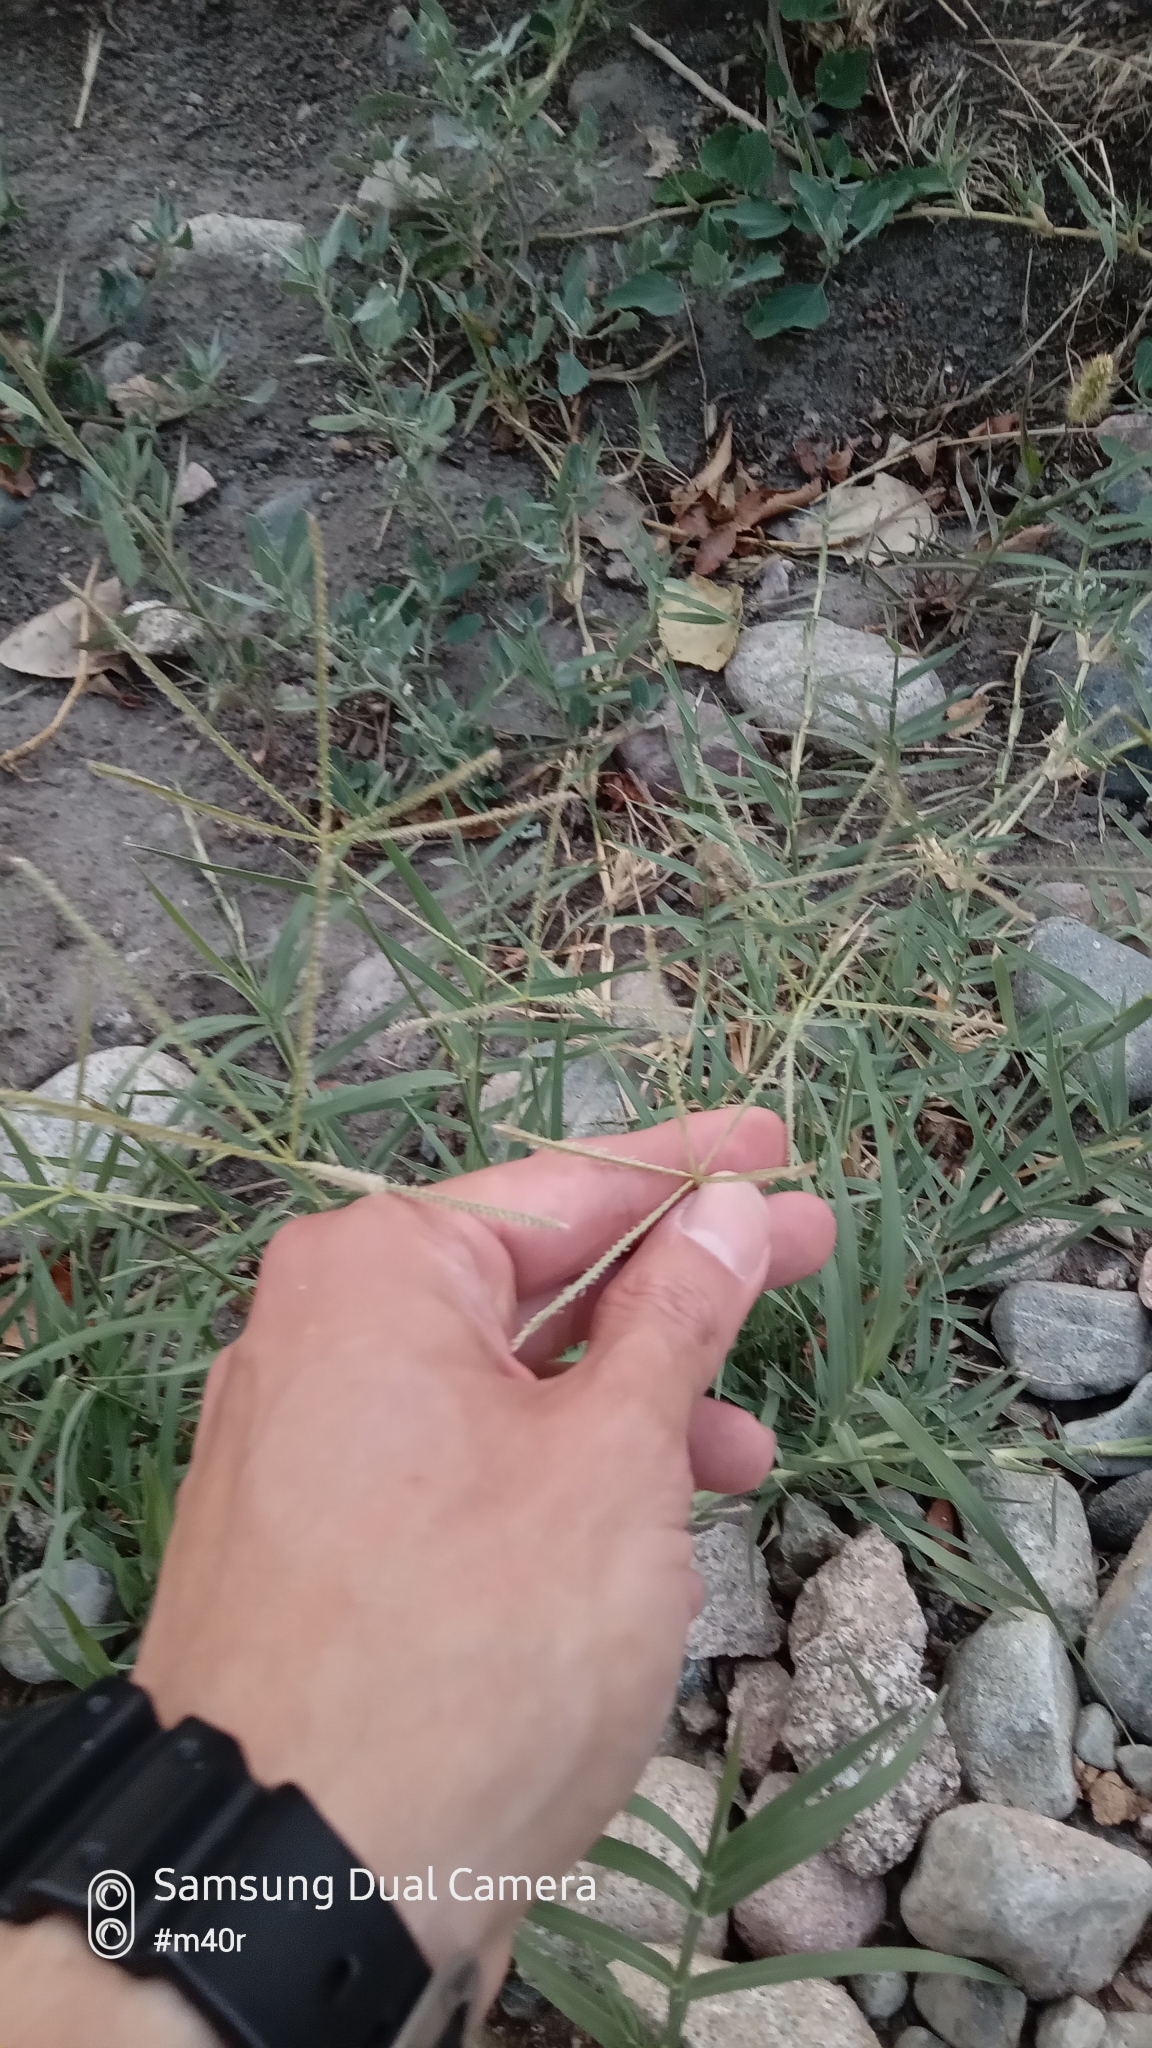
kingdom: Plantae
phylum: Tracheophyta
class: Liliopsida
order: Poales
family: Poaceae
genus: Cynodon
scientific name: Cynodon dactylon
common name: Bermuda grass
